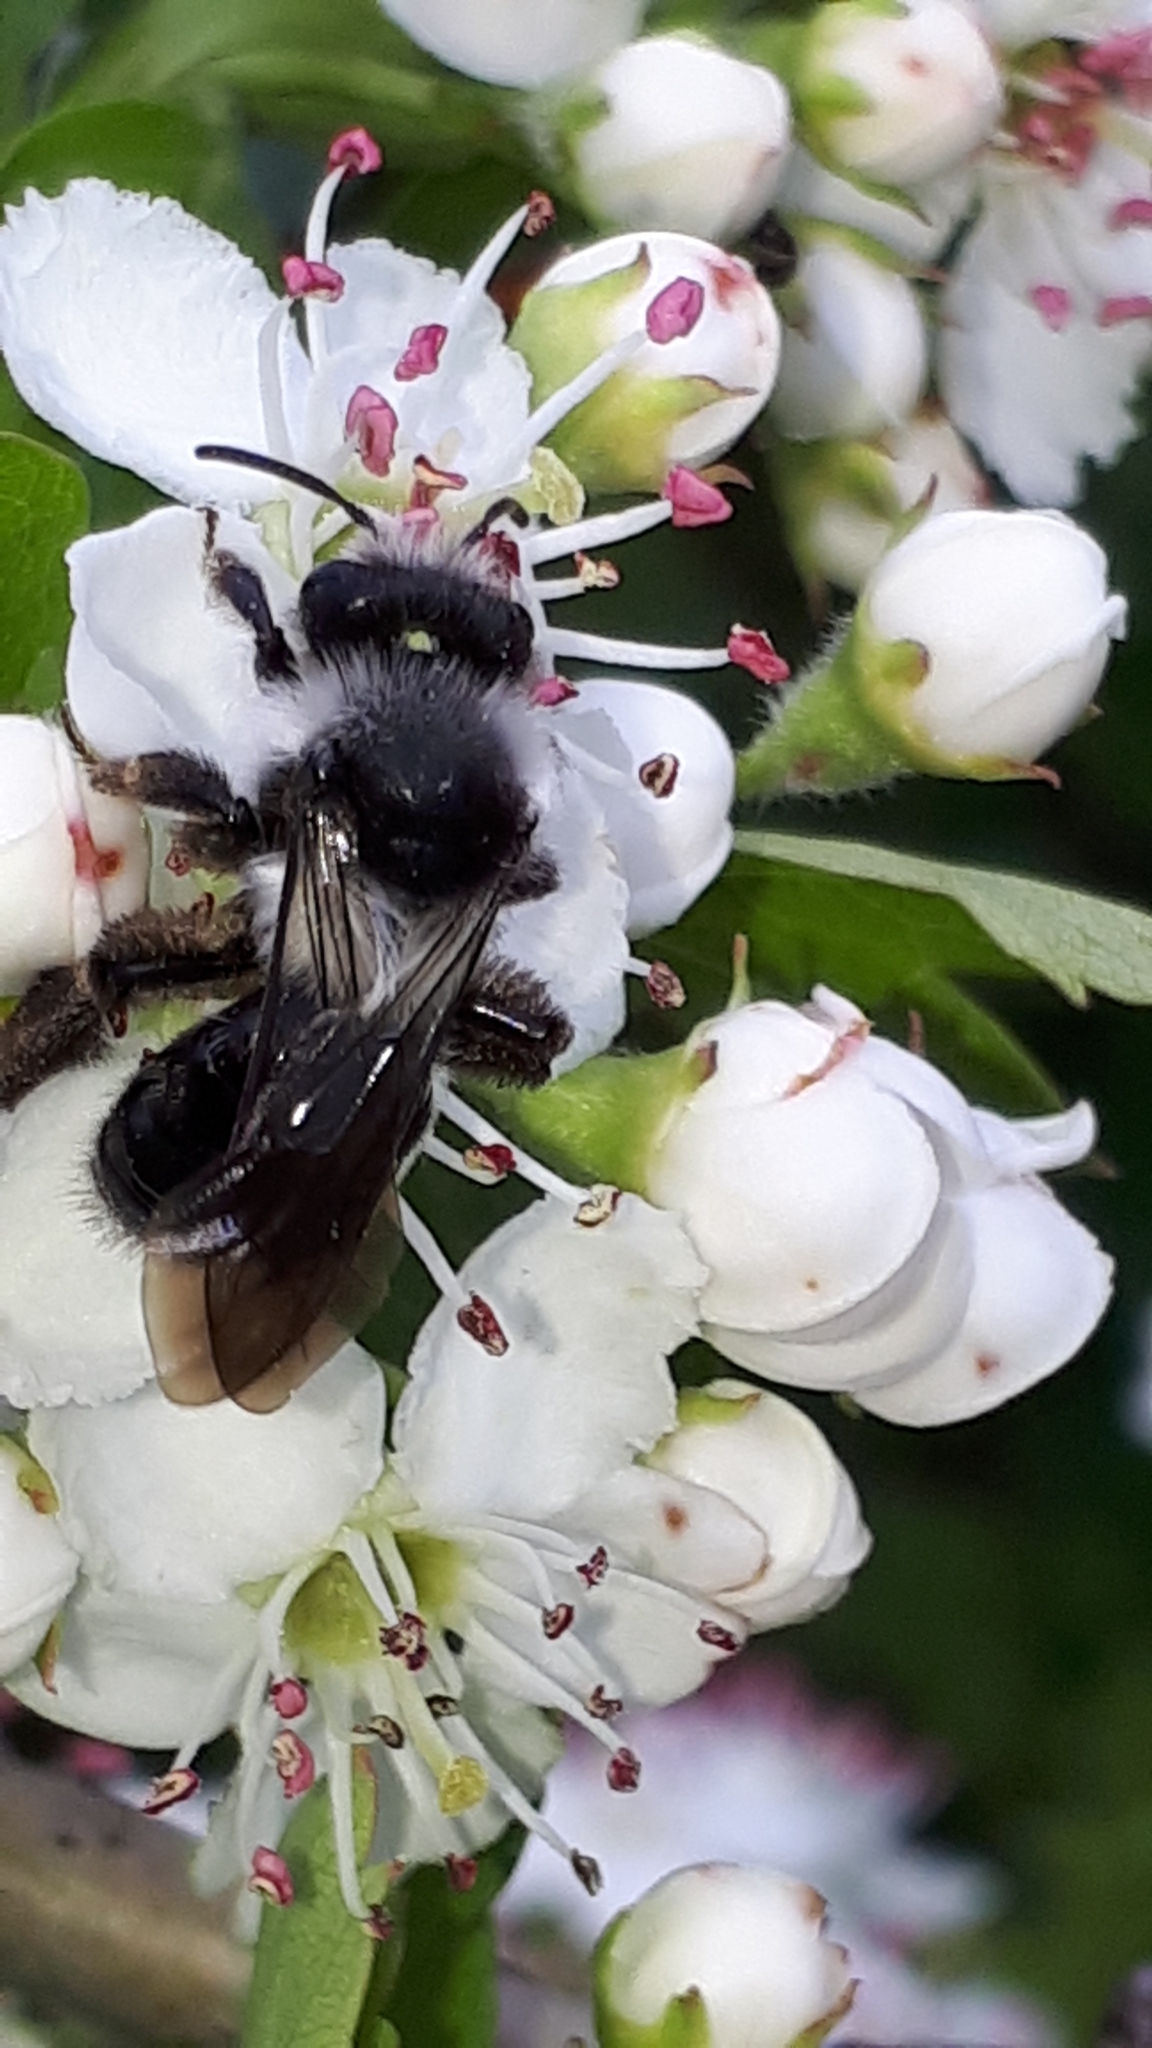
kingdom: Animalia
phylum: Arthropoda
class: Insecta
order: Hymenoptera
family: Andrenidae
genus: Andrena
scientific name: Andrena cineraria
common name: Ashy mining bee
